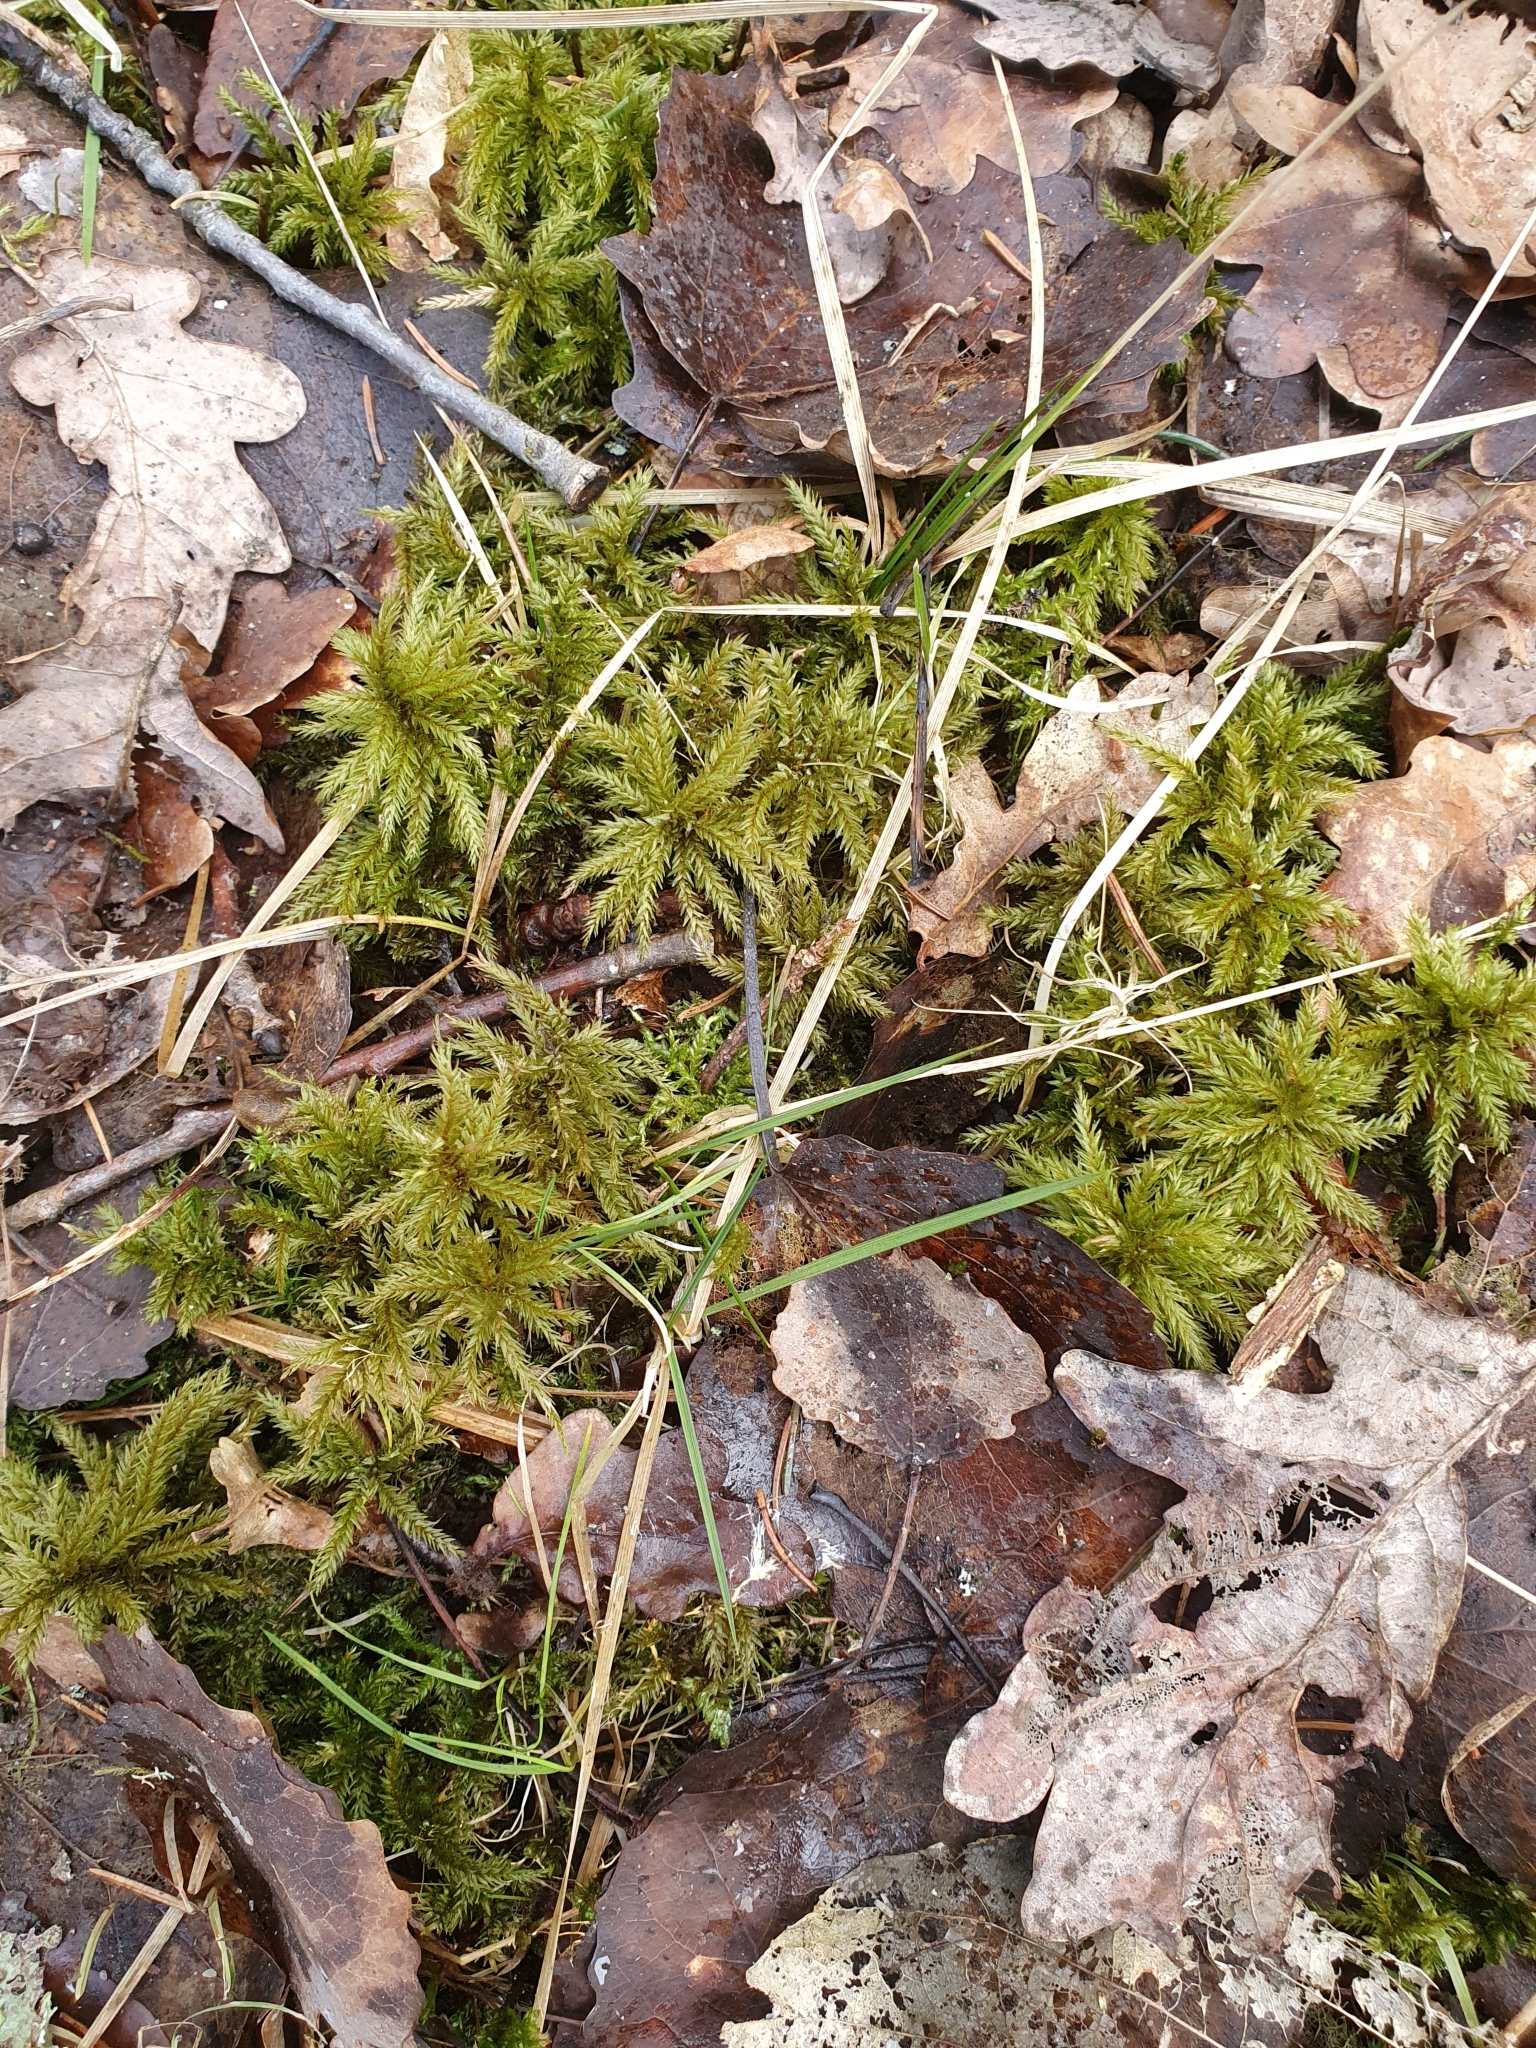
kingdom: Plantae
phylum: Bryophyta
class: Bryopsida
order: Hypnales
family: Climaciaceae
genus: Climacium
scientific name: Climacium dendroides
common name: Northern tree moss
